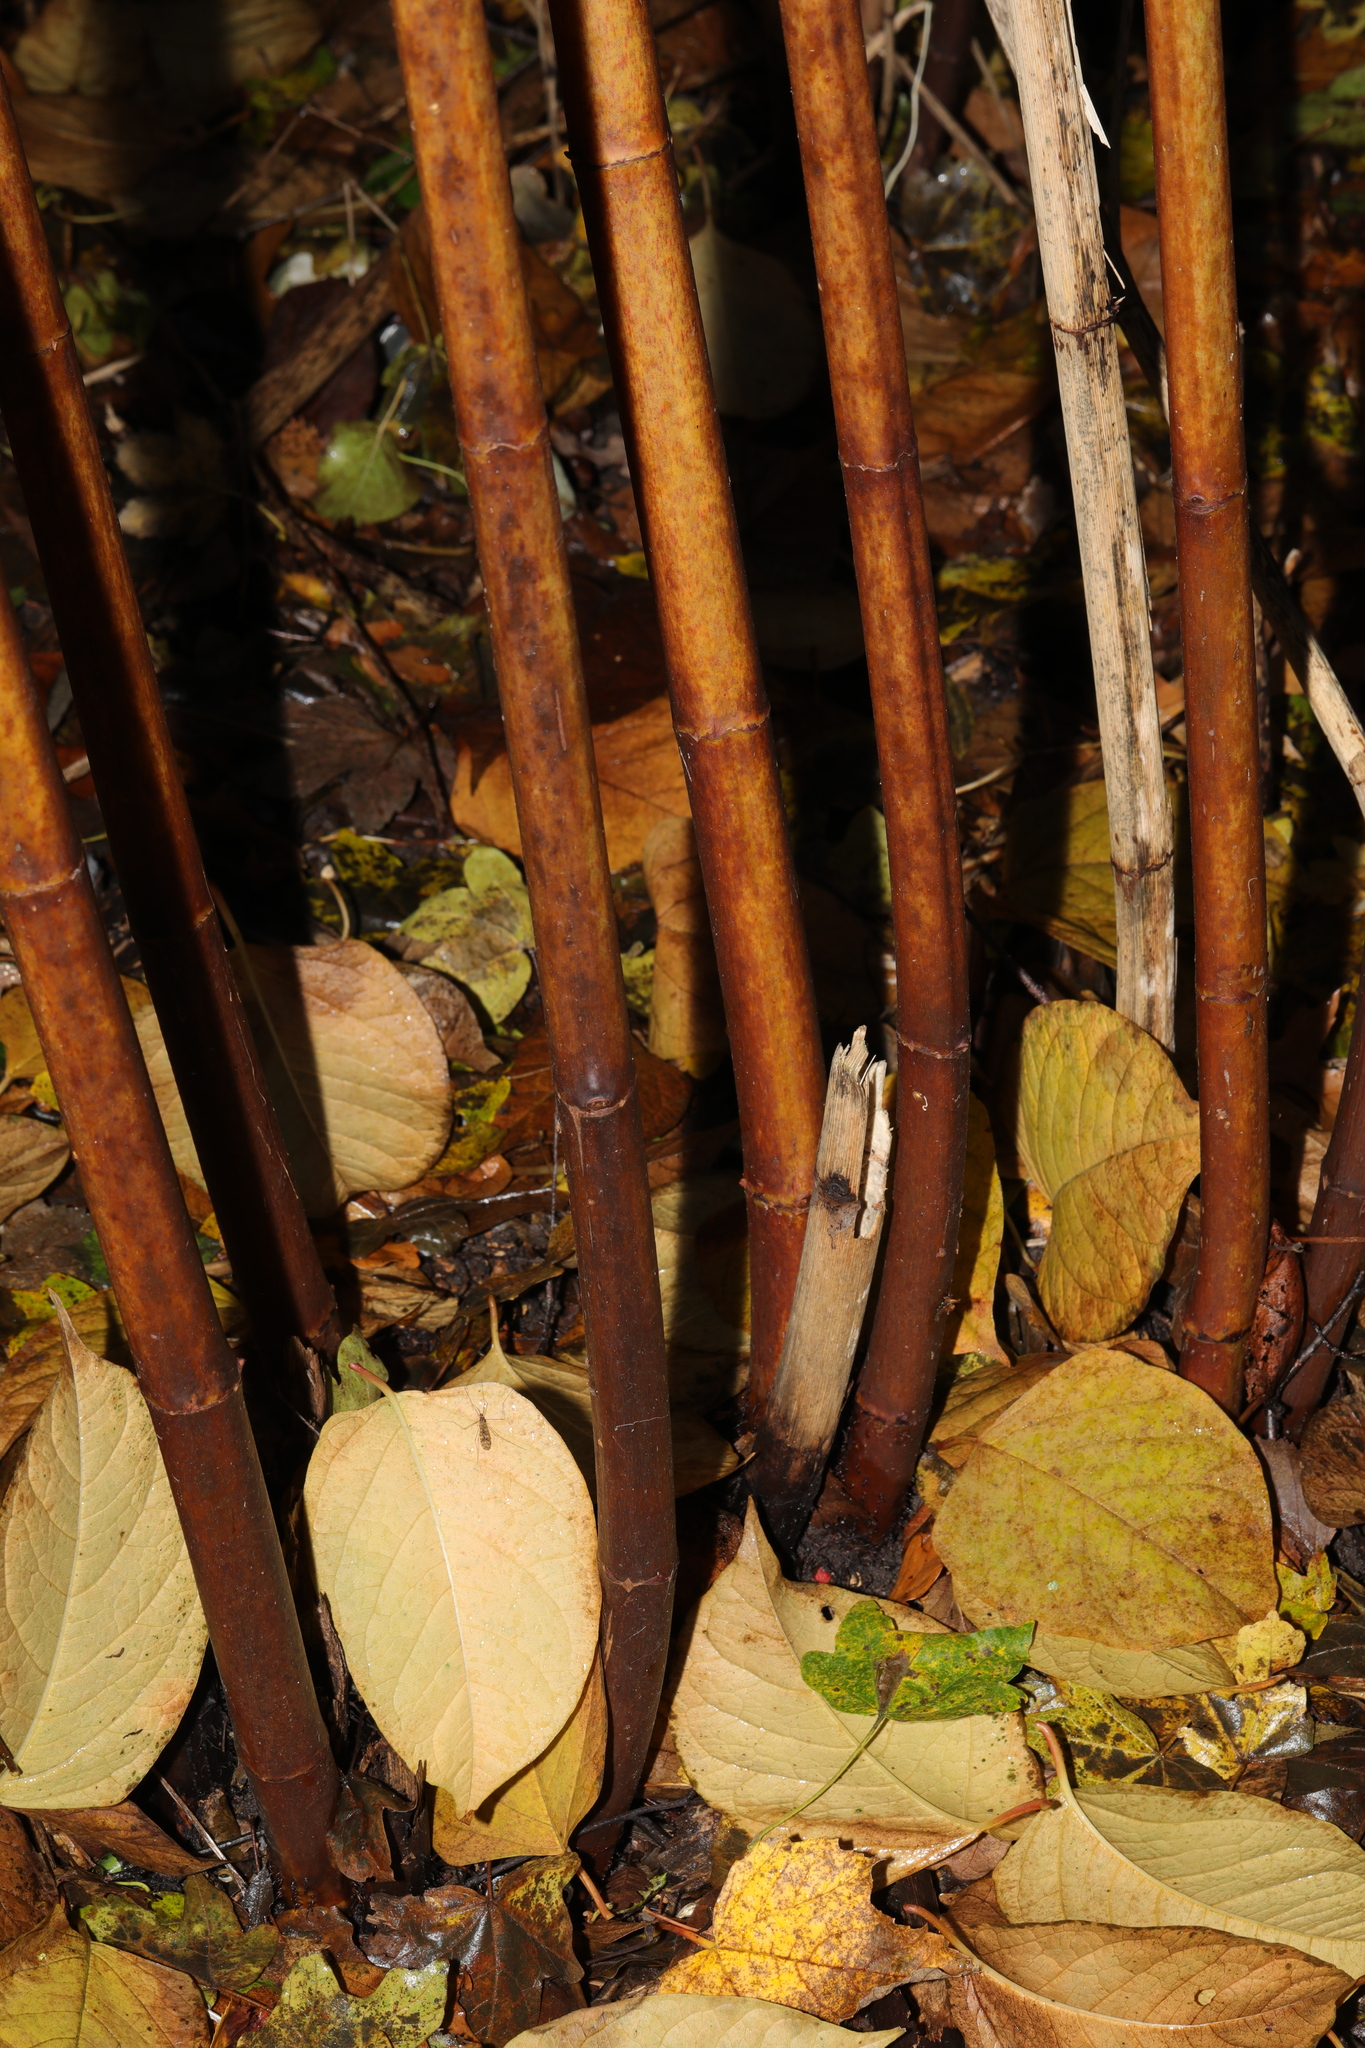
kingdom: Plantae
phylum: Tracheophyta
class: Magnoliopsida
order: Caryophyllales
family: Polygonaceae
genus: Reynoutria
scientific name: Reynoutria japonica
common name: Japanese knotweed
